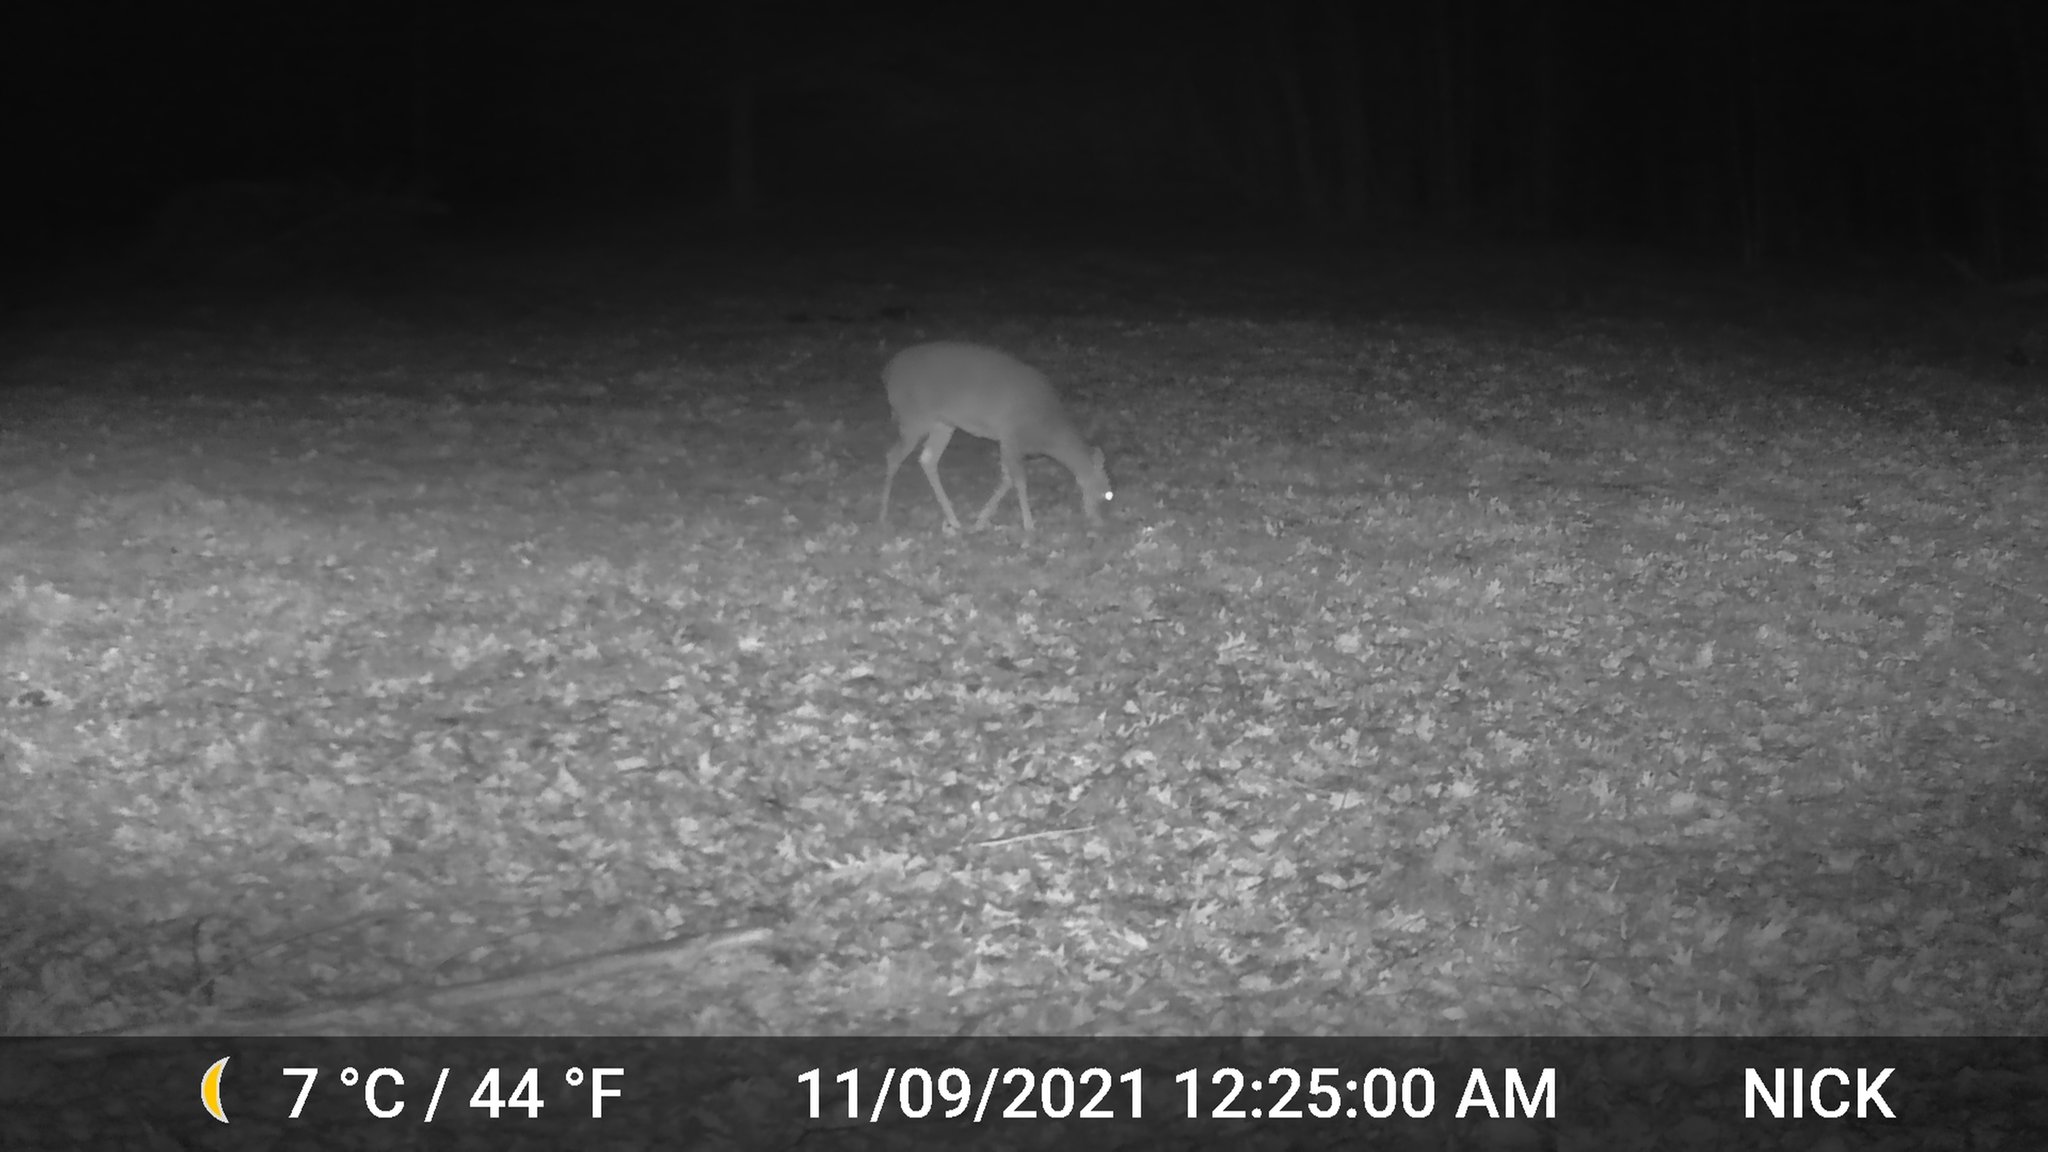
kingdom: Animalia
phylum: Chordata
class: Mammalia
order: Artiodactyla
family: Cervidae
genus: Odocoileus
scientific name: Odocoileus virginianus
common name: White-tailed deer
